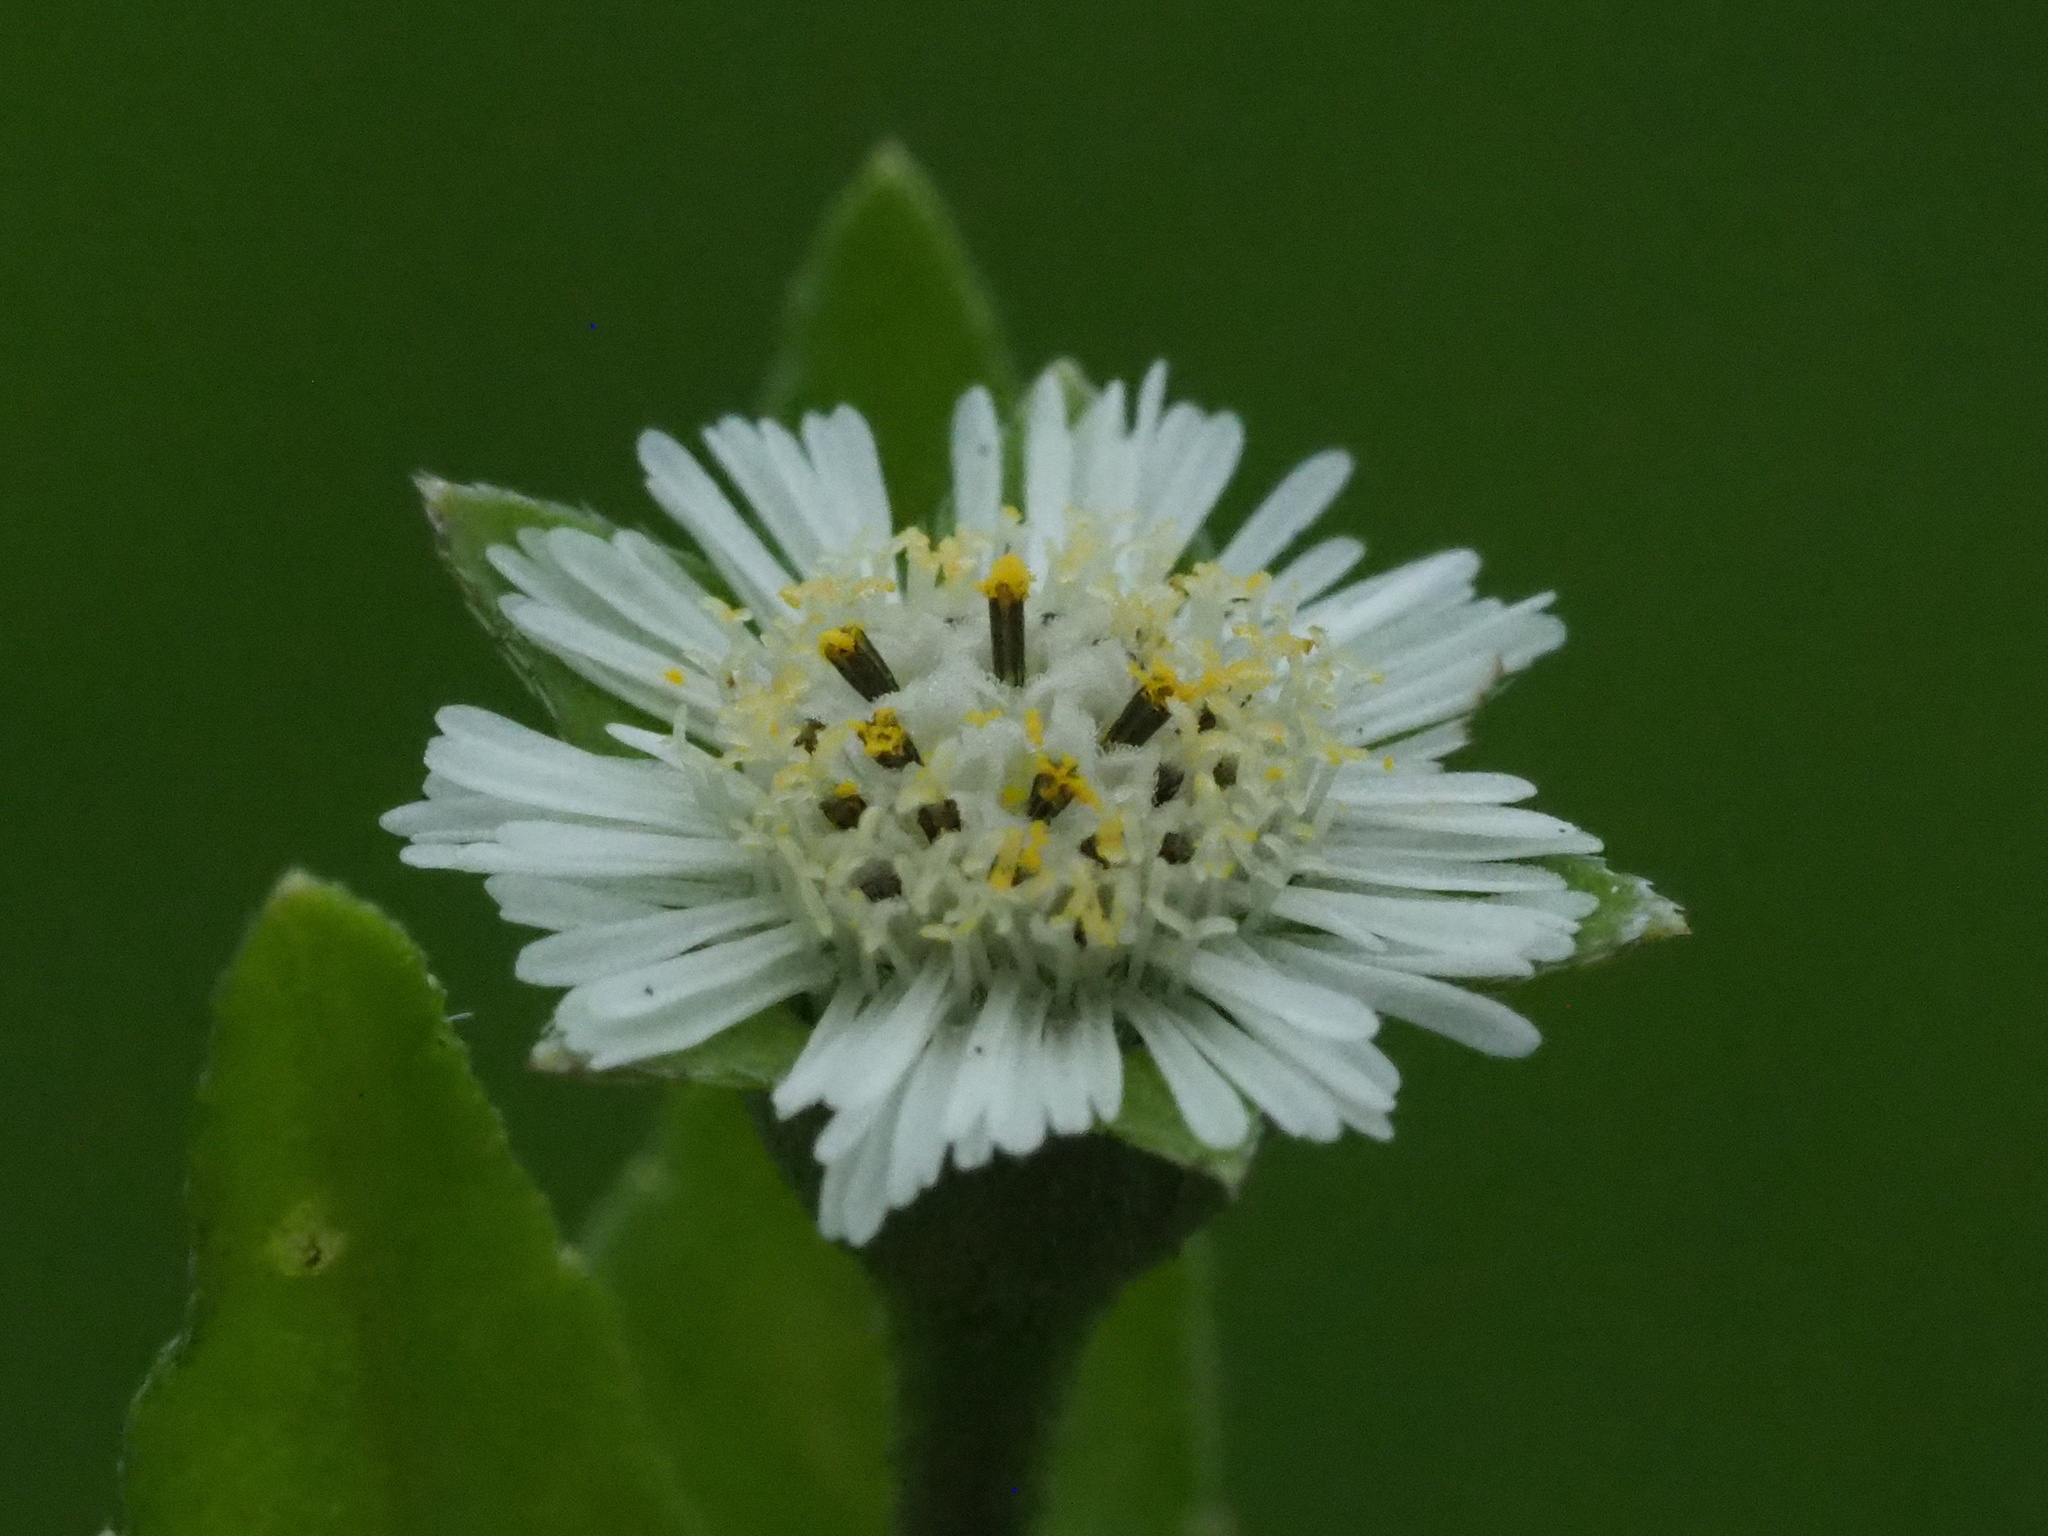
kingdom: Plantae
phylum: Tracheophyta
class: Magnoliopsida
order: Asterales
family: Asteraceae
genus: Eclipta
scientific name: Eclipta prostrata
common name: False daisy
